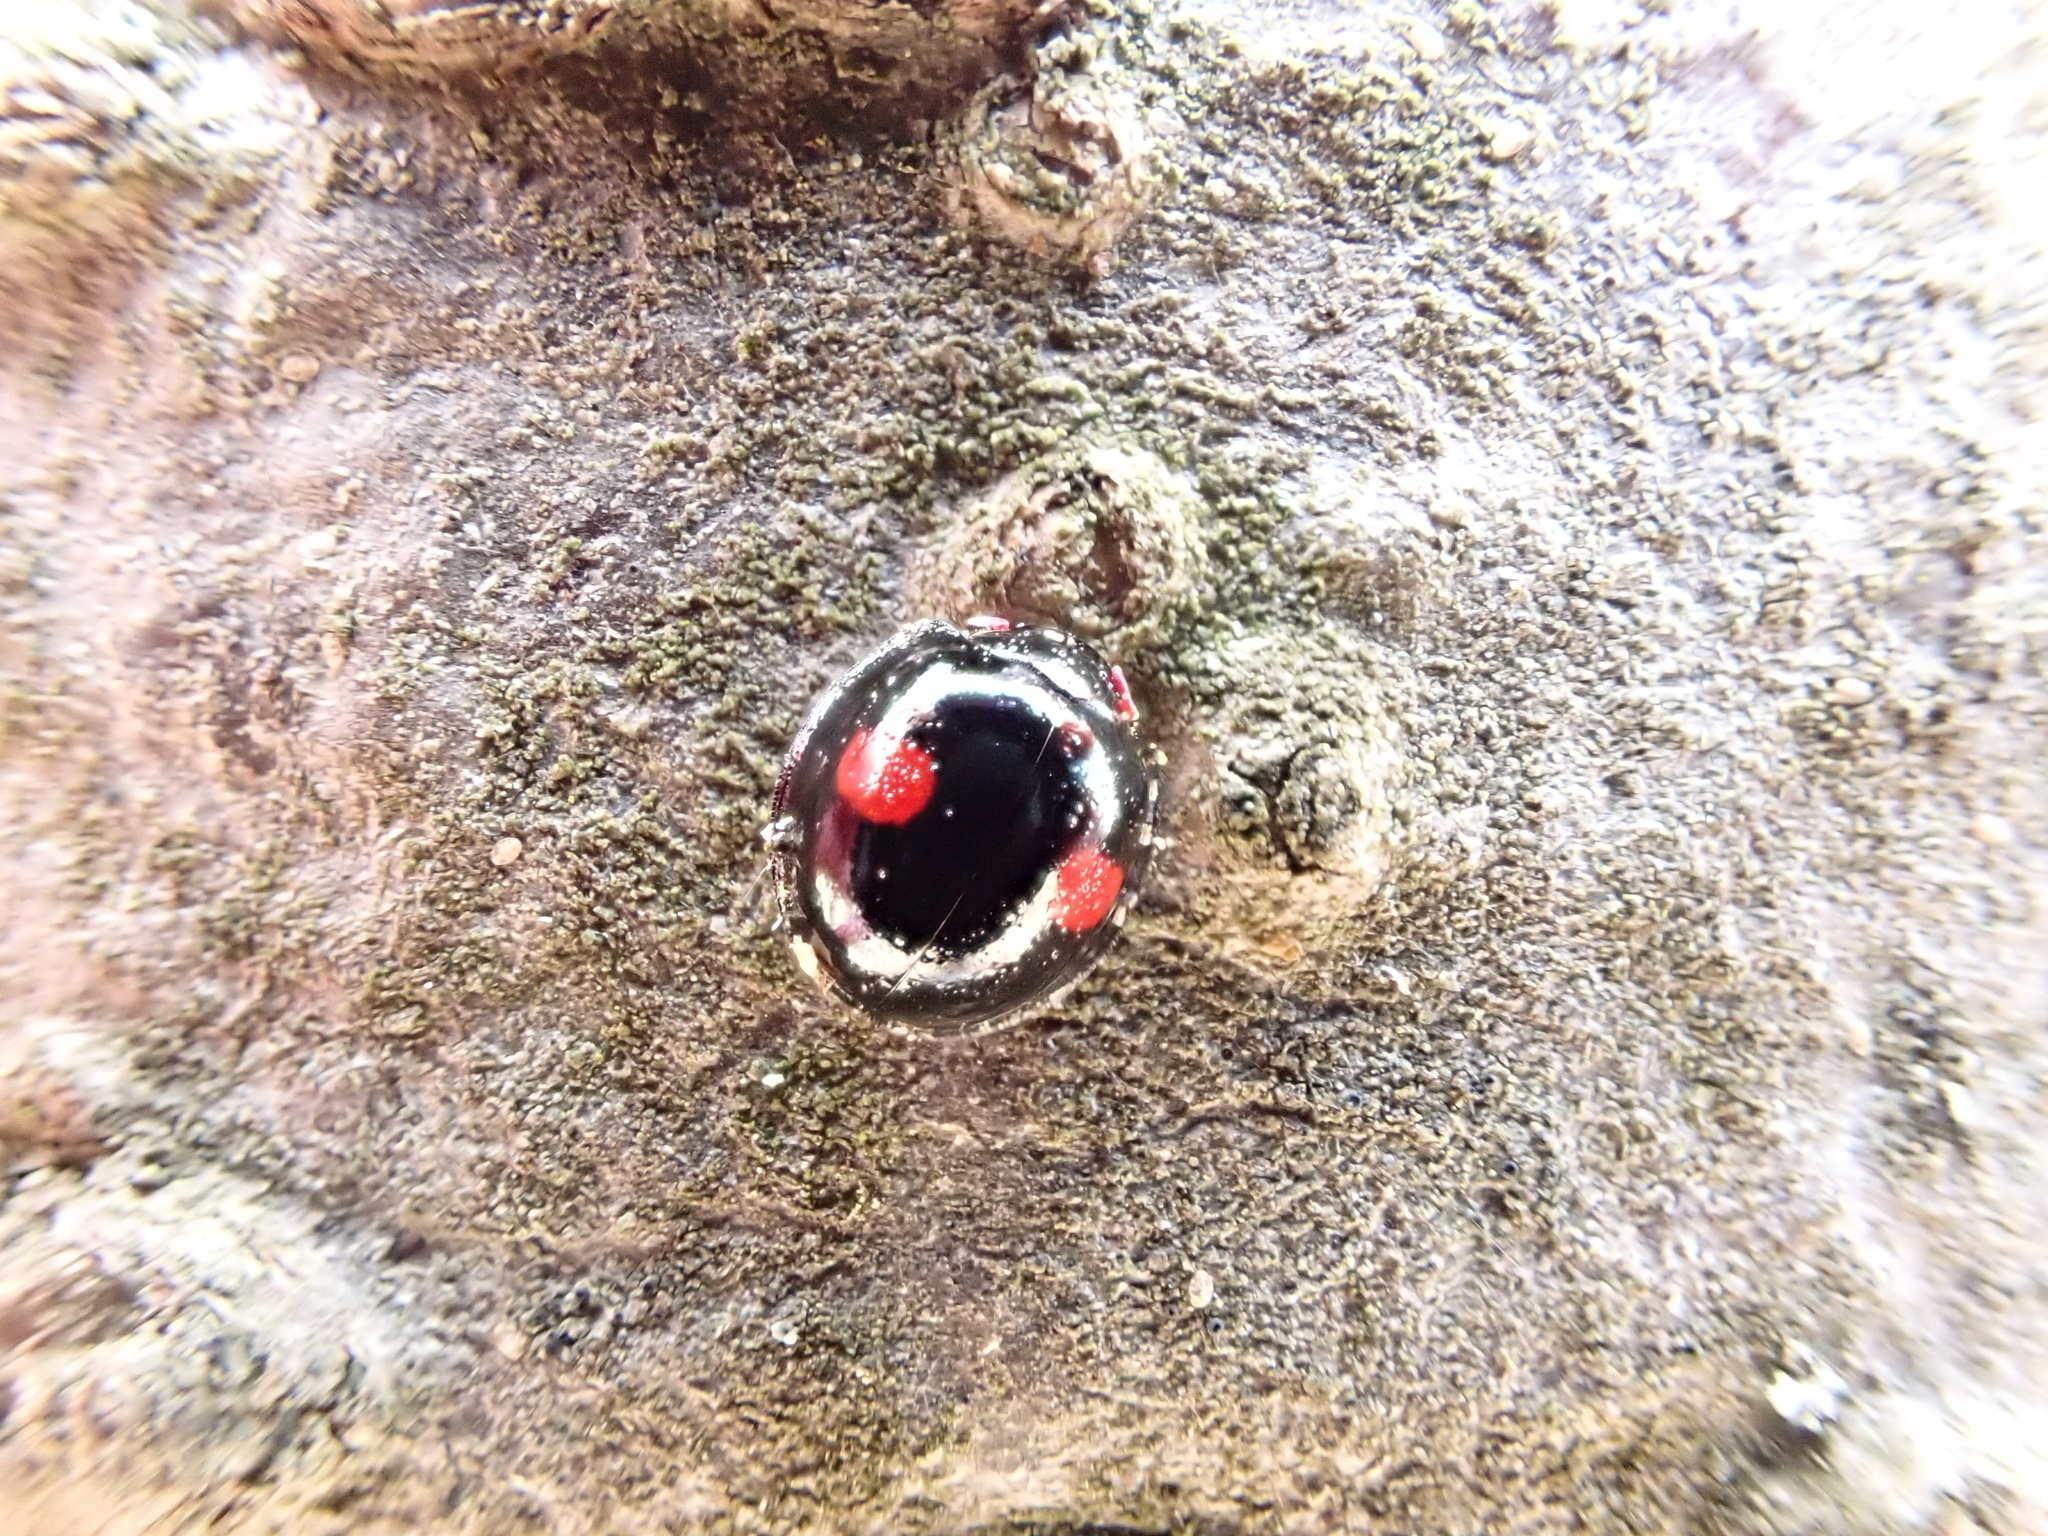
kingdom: Animalia
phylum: Arthropoda
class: Insecta
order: Coleoptera
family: Coccinellidae
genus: Chilocorus
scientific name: Chilocorus renipustulatus
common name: Kidney-spot ladybird
